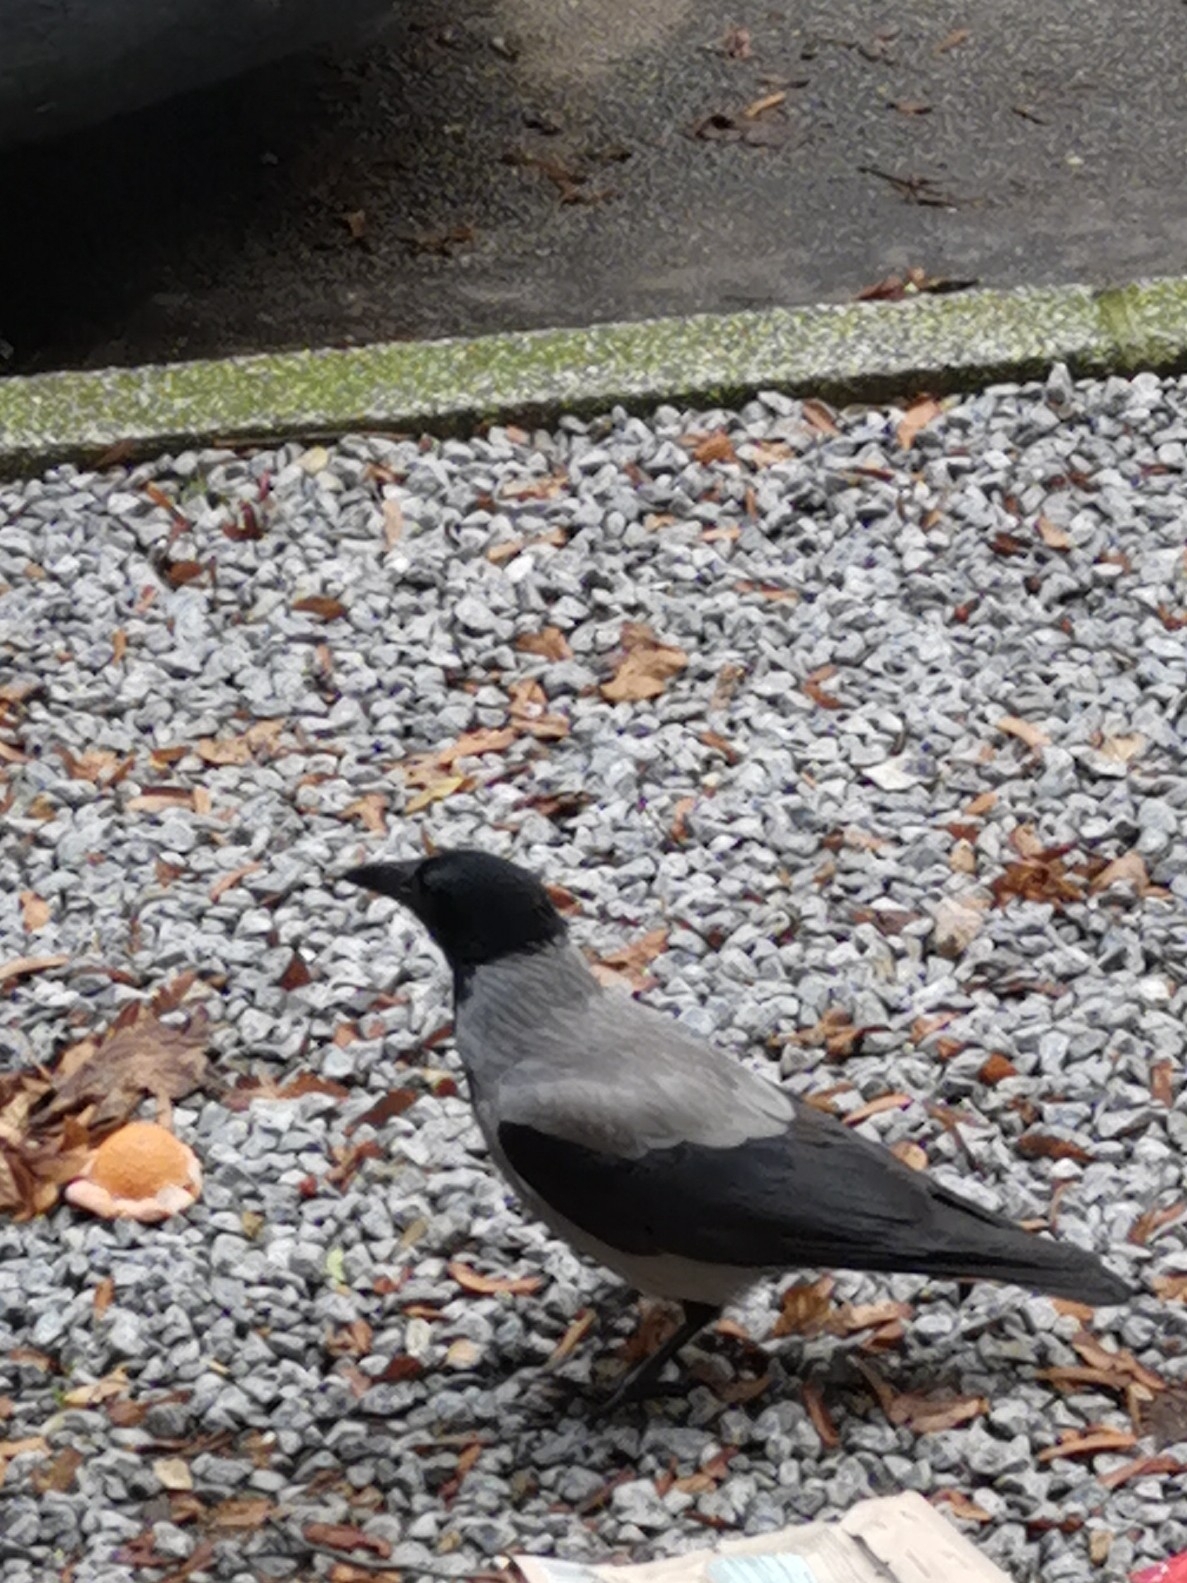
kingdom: Animalia
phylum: Chordata
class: Aves
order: Passeriformes
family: Corvidae
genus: Corvus
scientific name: Corvus cornix
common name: Hooded crow
